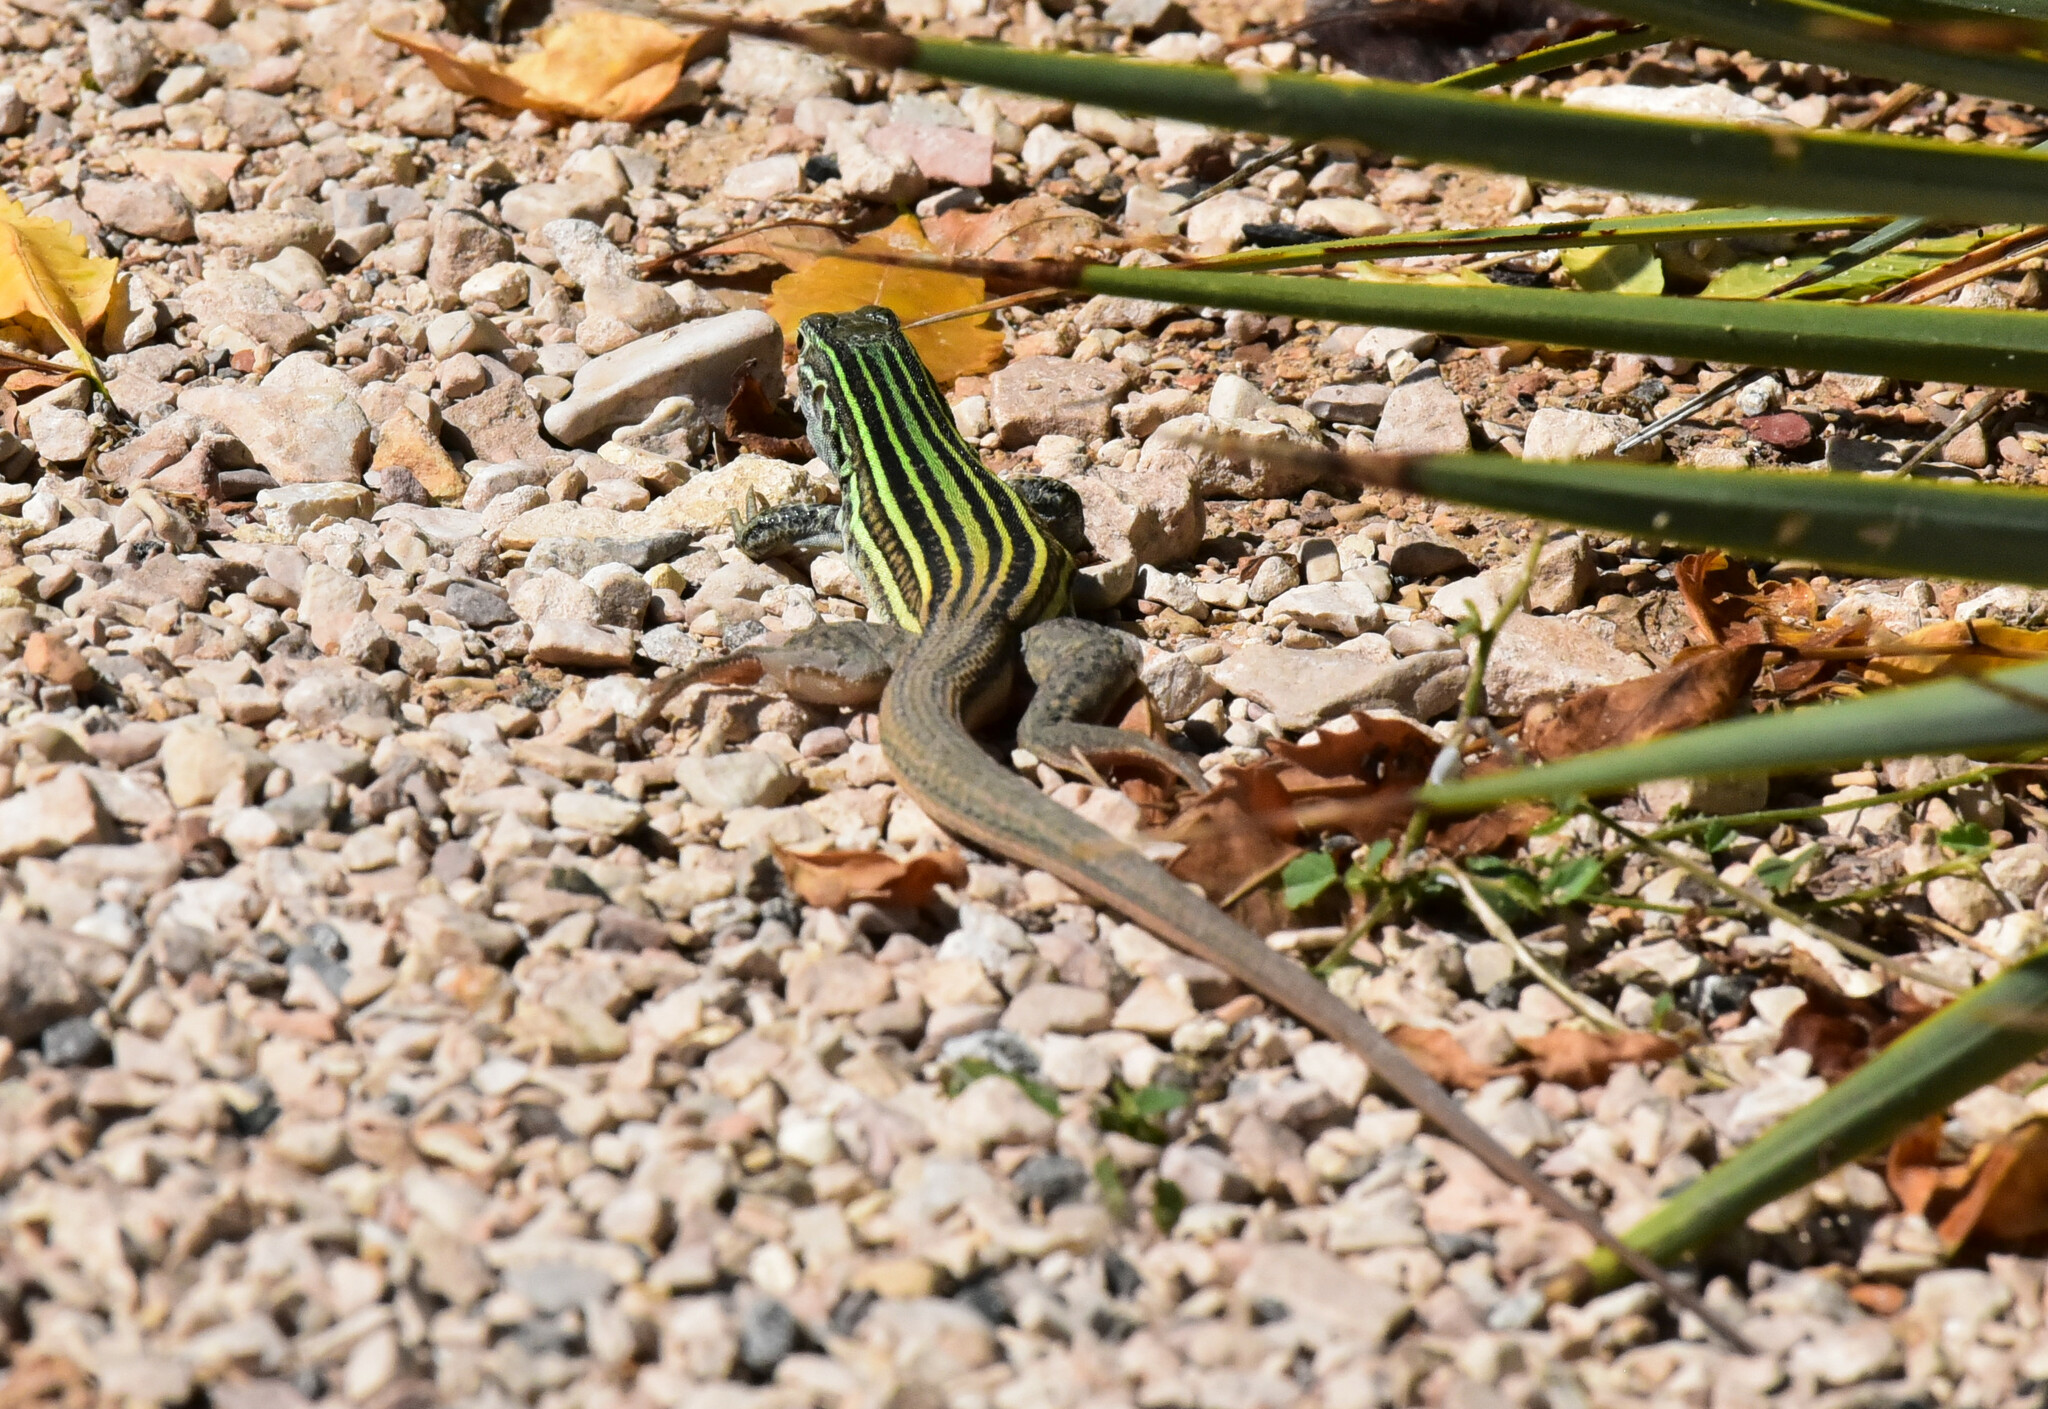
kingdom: Animalia
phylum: Chordata
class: Squamata
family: Teiidae
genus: Aspidoscelis
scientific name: Aspidoscelis gularis
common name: Eastern spotted whiptail
